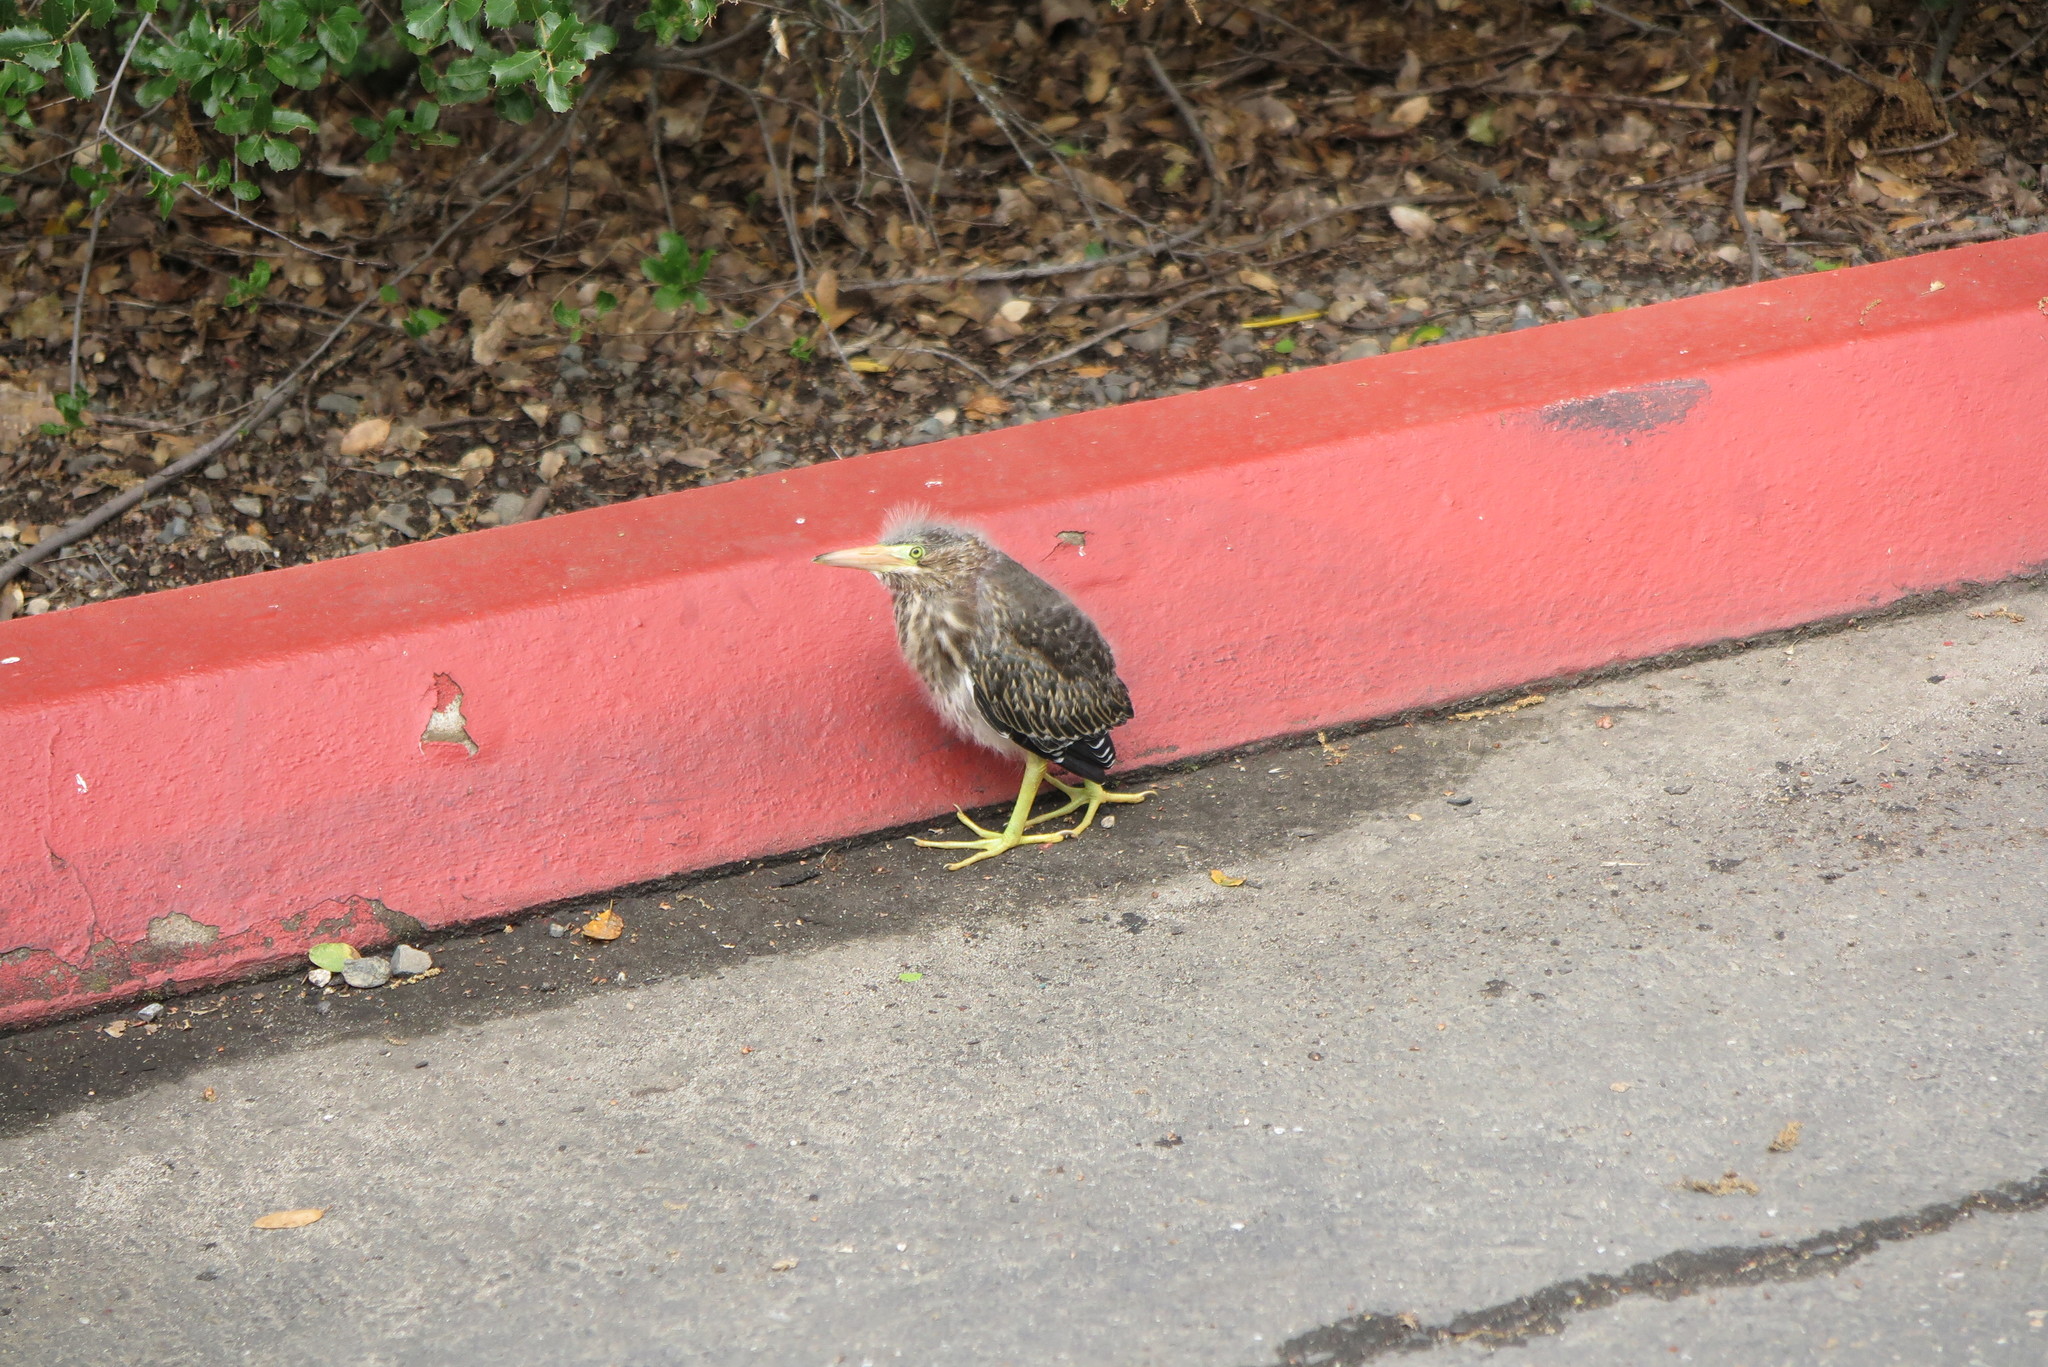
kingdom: Animalia
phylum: Chordata
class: Aves
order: Pelecaniformes
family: Ardeidae
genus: Butorides
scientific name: Butorides virescens
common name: Green heron
